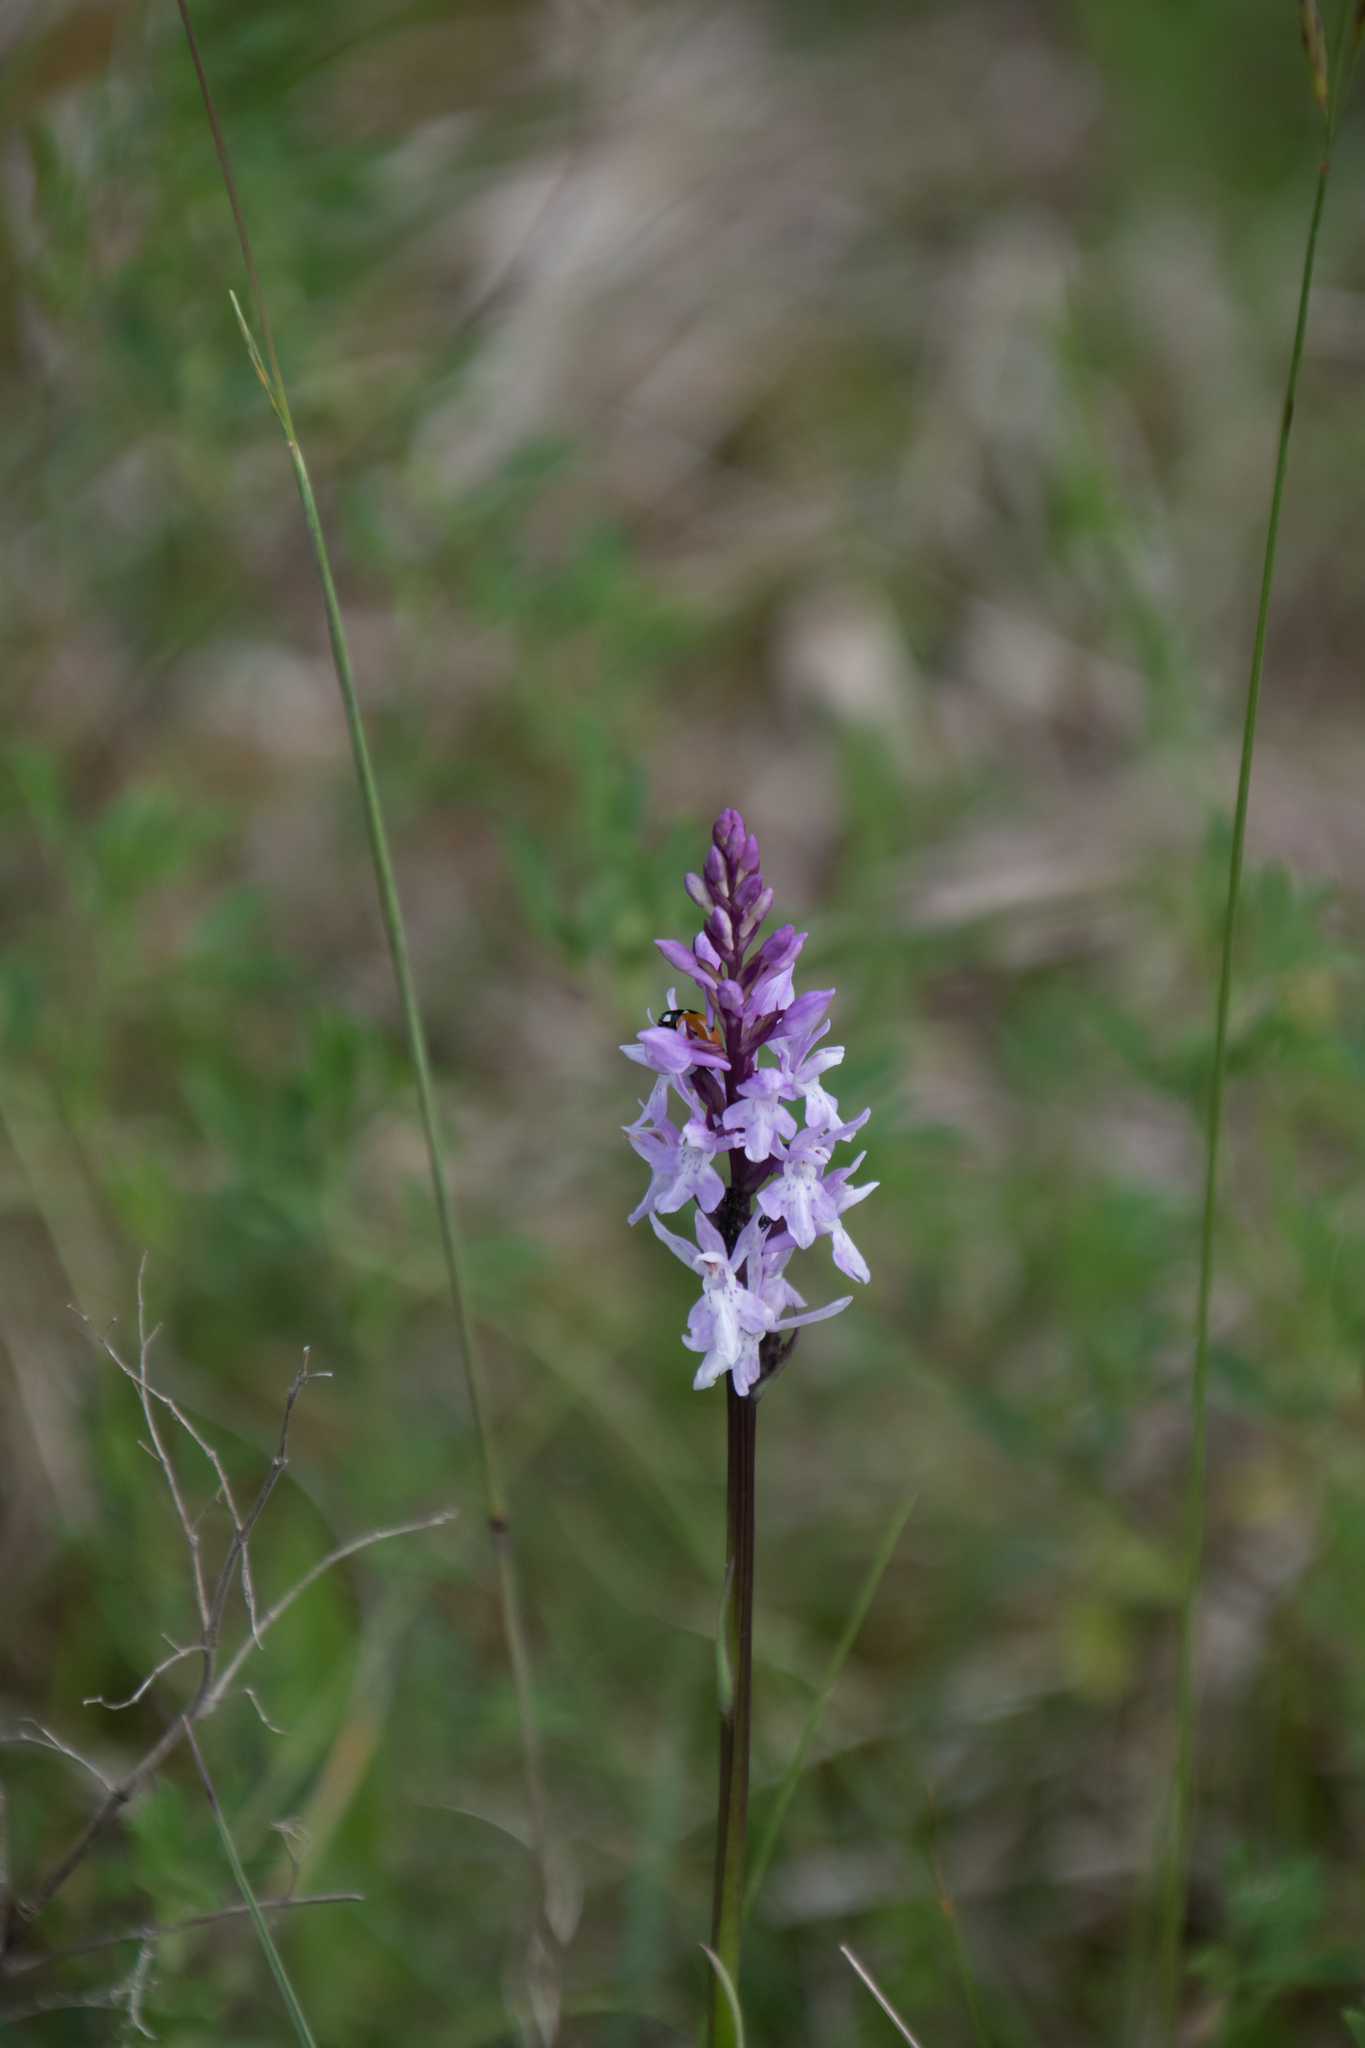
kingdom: Plantae
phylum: Tracheophyta
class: Liliopsida
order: Asparagales
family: Orchidaceae
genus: Dactylorhiza
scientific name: Dactylorhiza maculata
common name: Heath spotted-orchid
